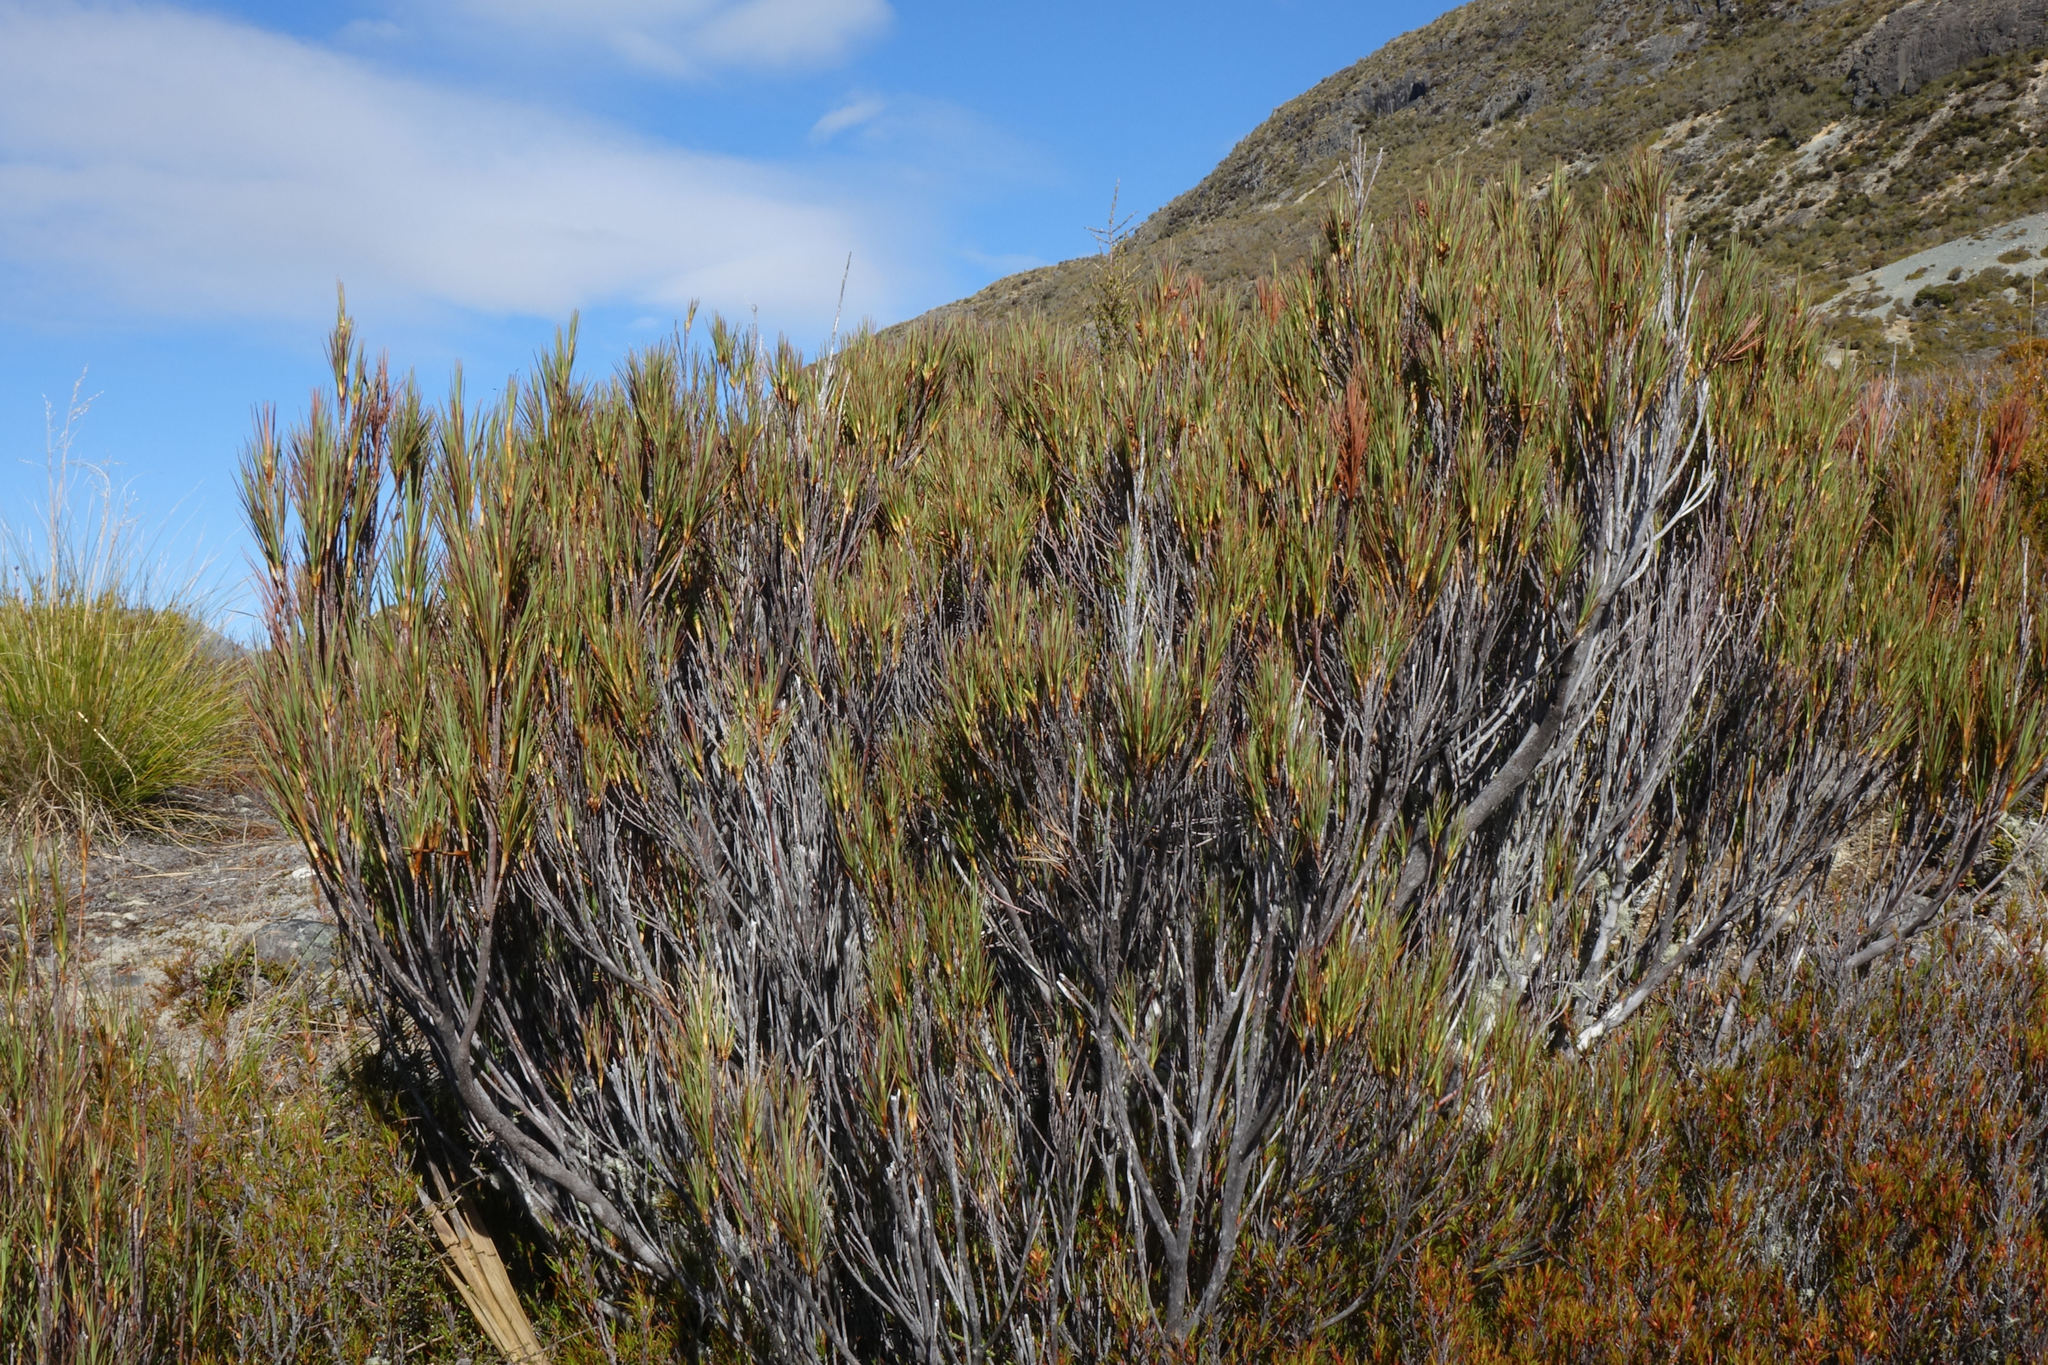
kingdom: Plantae
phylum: Tracheophyta
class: Magnoliopsida
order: Ericales
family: Ericaceae
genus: Dracophyllum
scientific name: Dracophyllum longifolium
